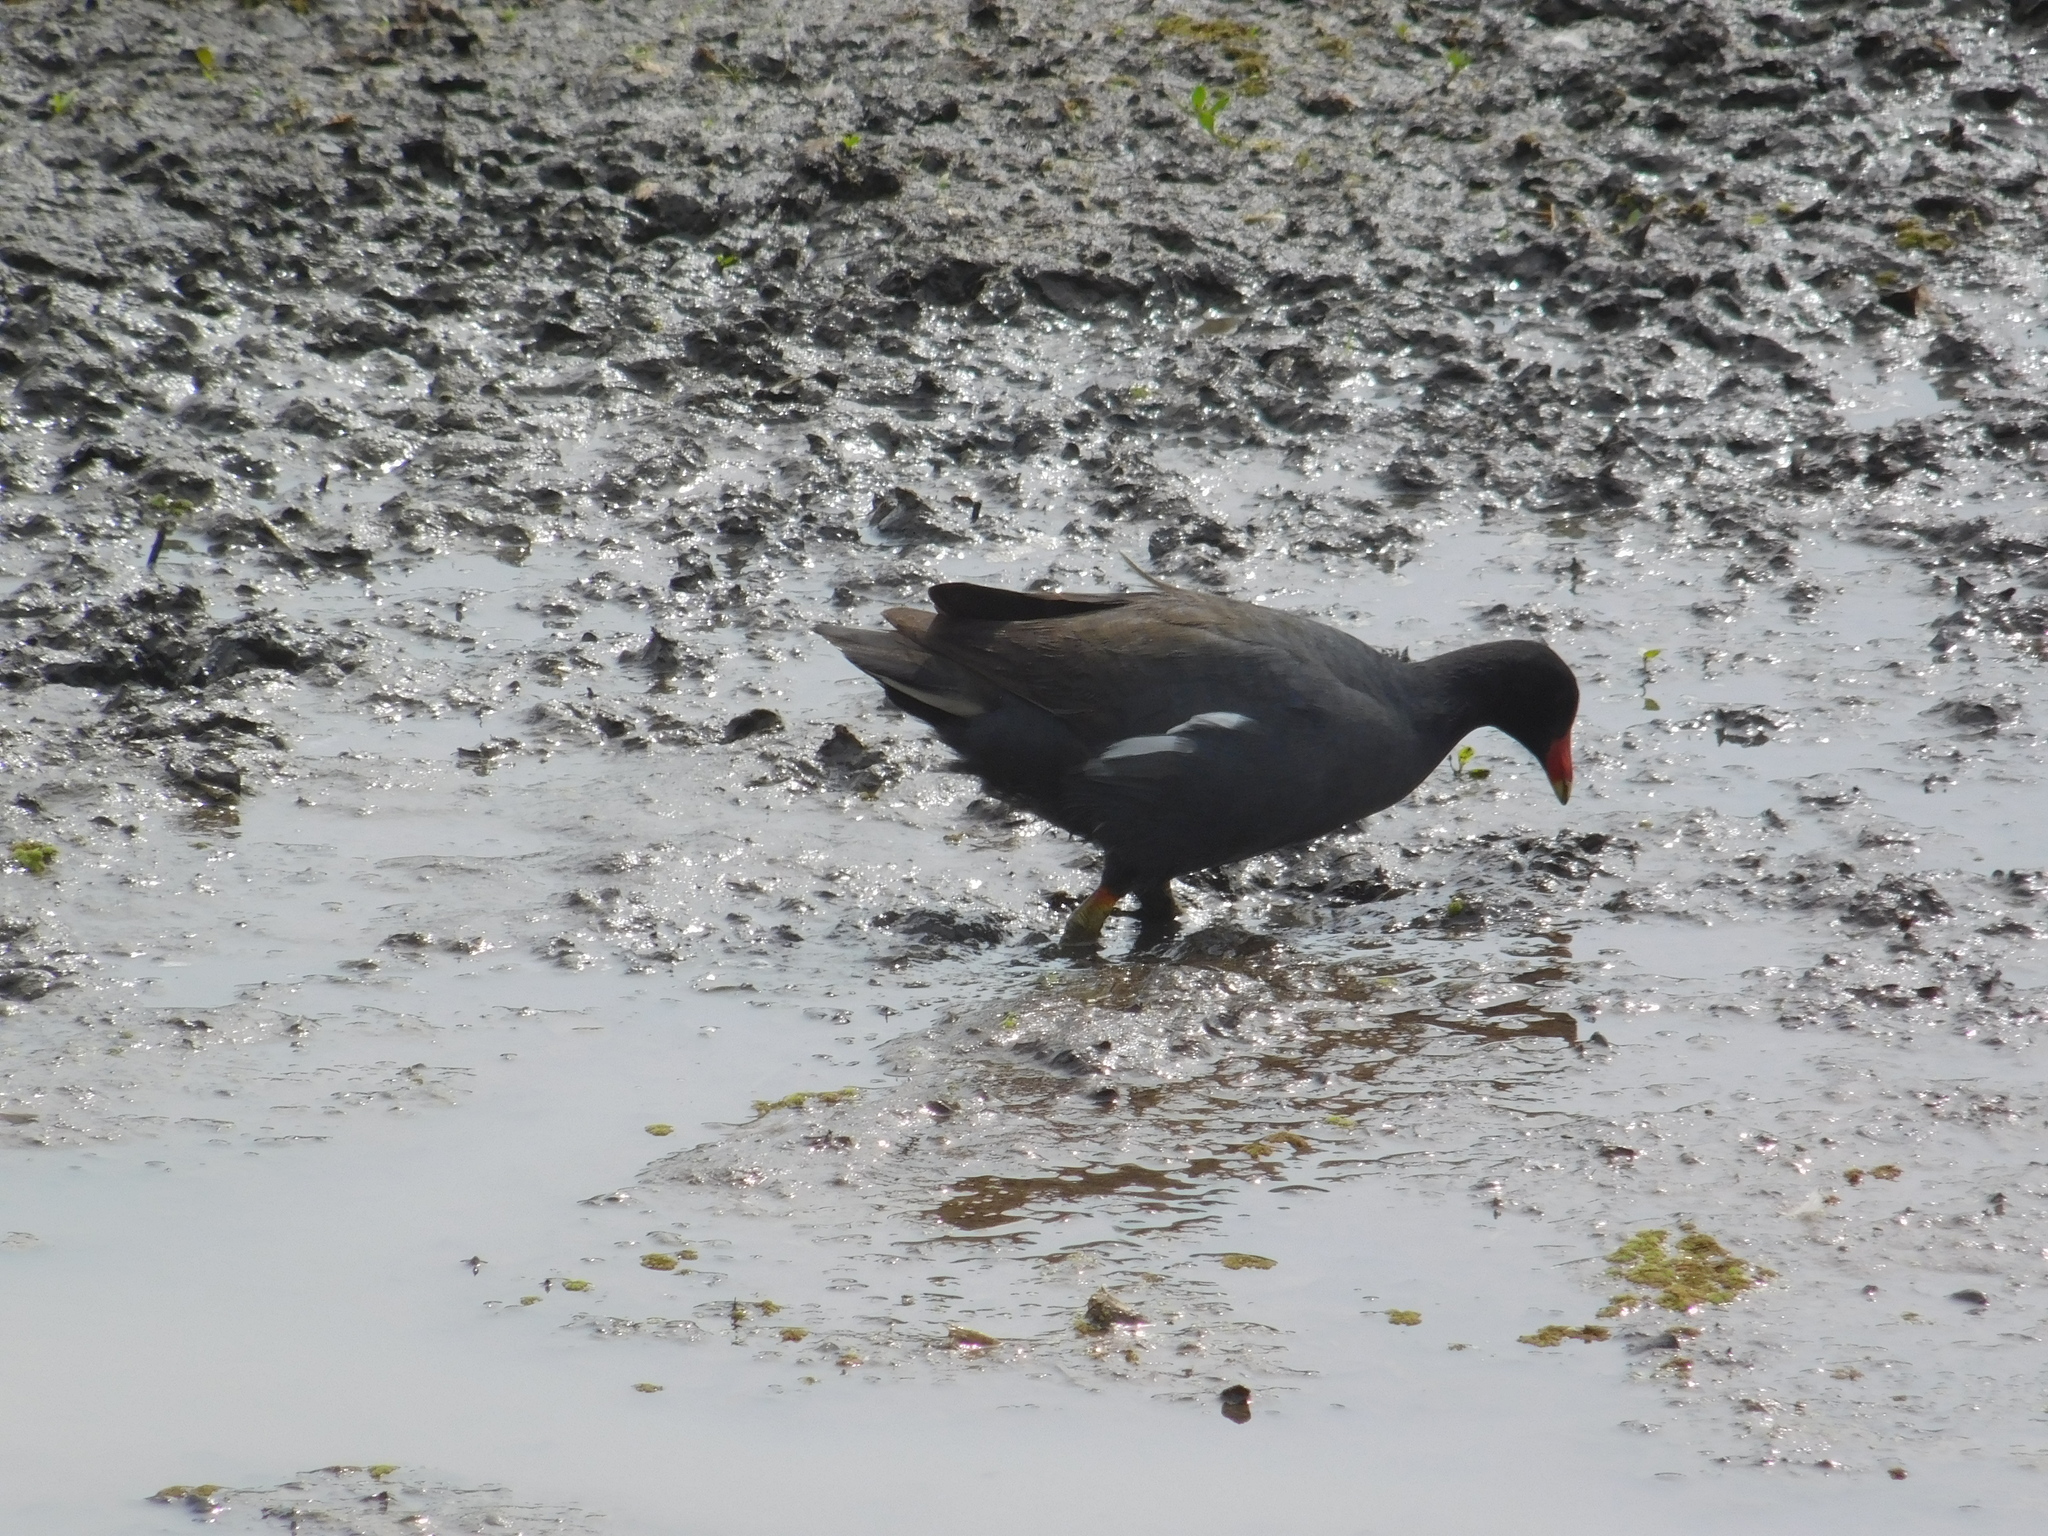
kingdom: Animalia
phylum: Chordata
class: Aves
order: Gruiformes
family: Rallidae
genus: Gallinula
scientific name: Gallinula chloropus
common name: Common moorhen
